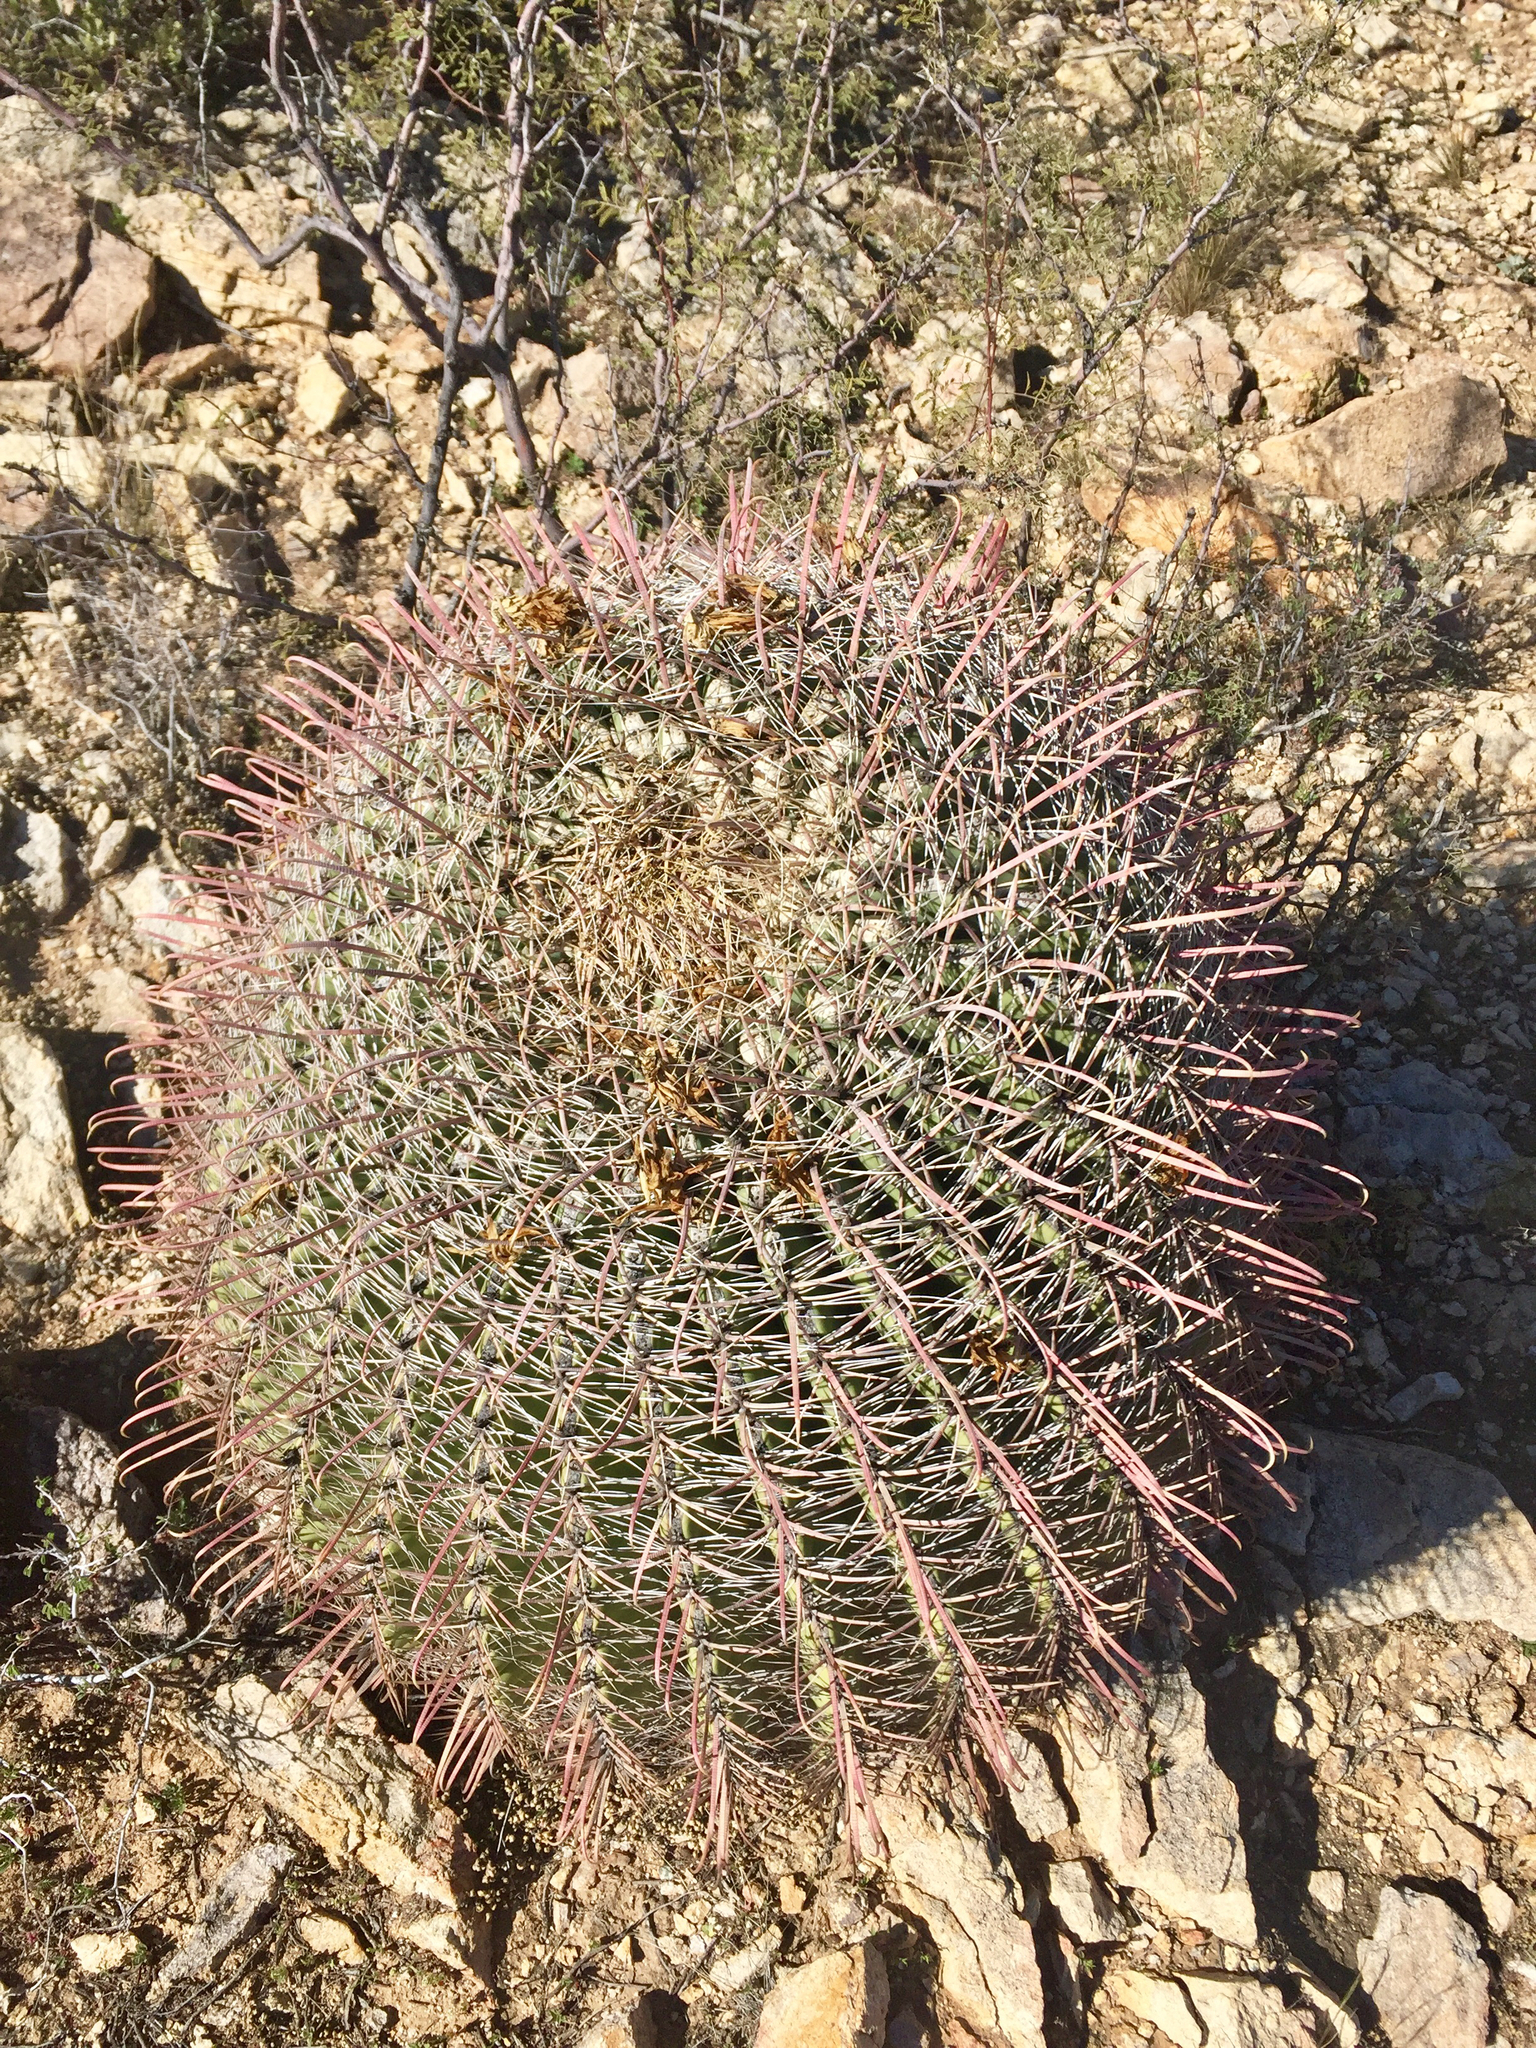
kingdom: Plantae
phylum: Tracheophyta
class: Magnoliopsida
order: Caryophyllales
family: Cactaceae
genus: Ferocactus
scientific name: Ferocactus wislizeni
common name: Candy barrel cactus
